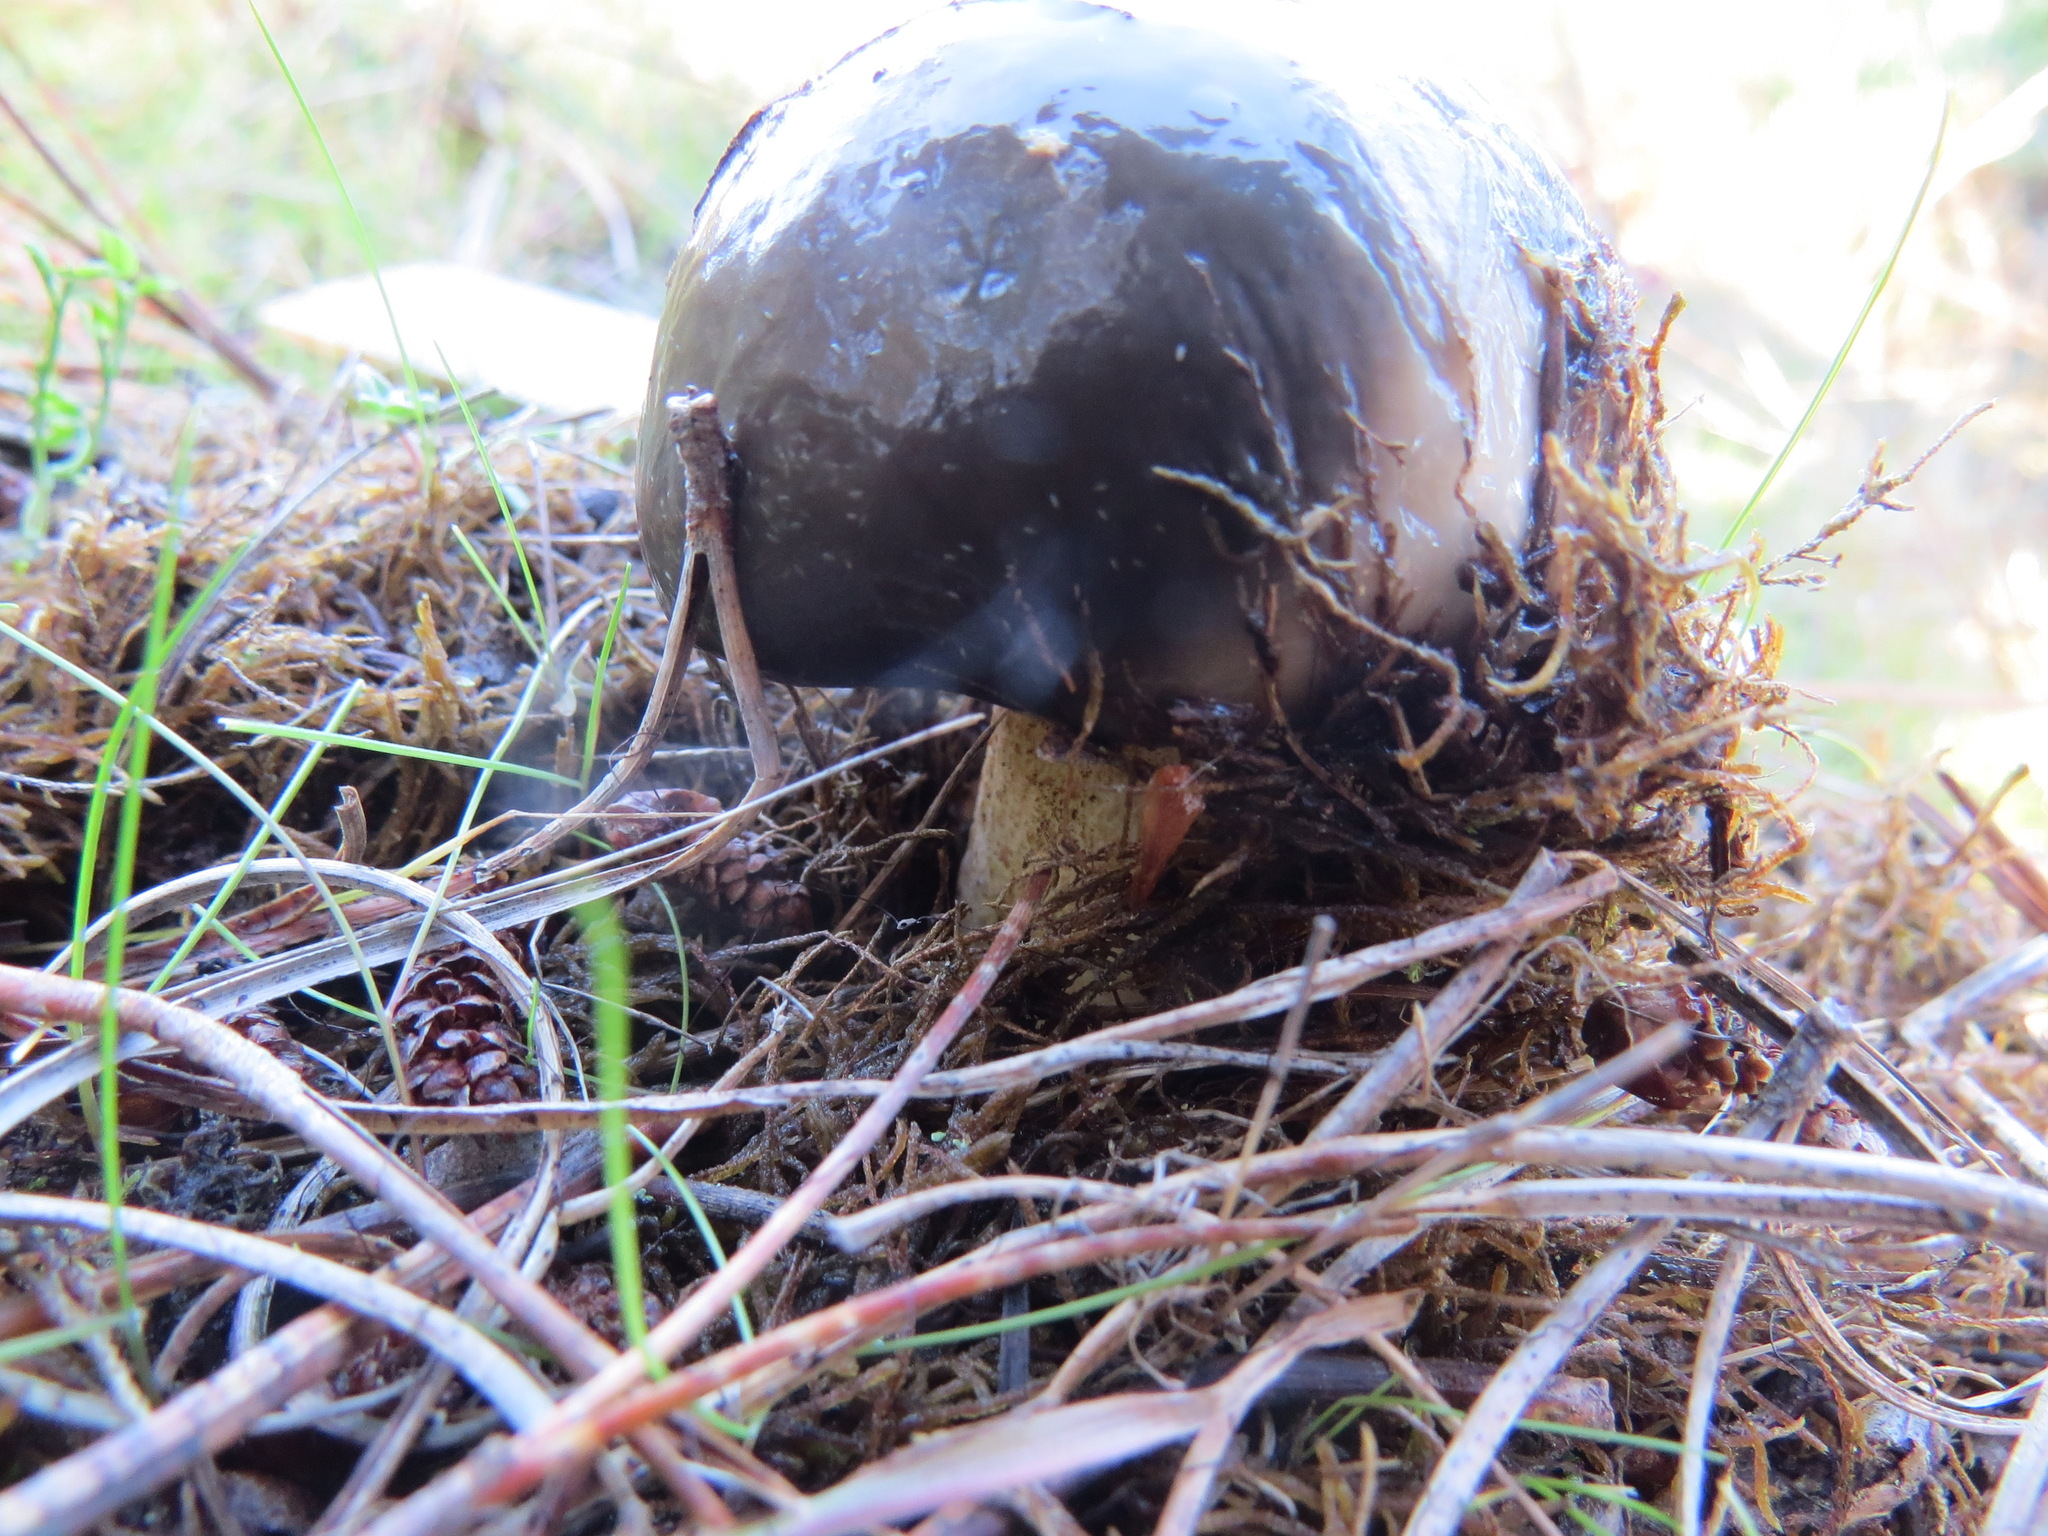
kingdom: Fungi
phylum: Basidiomycota
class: Agaricomycetes
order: Boletales
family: Suillaceae
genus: Suillus
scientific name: Suillus pungens
